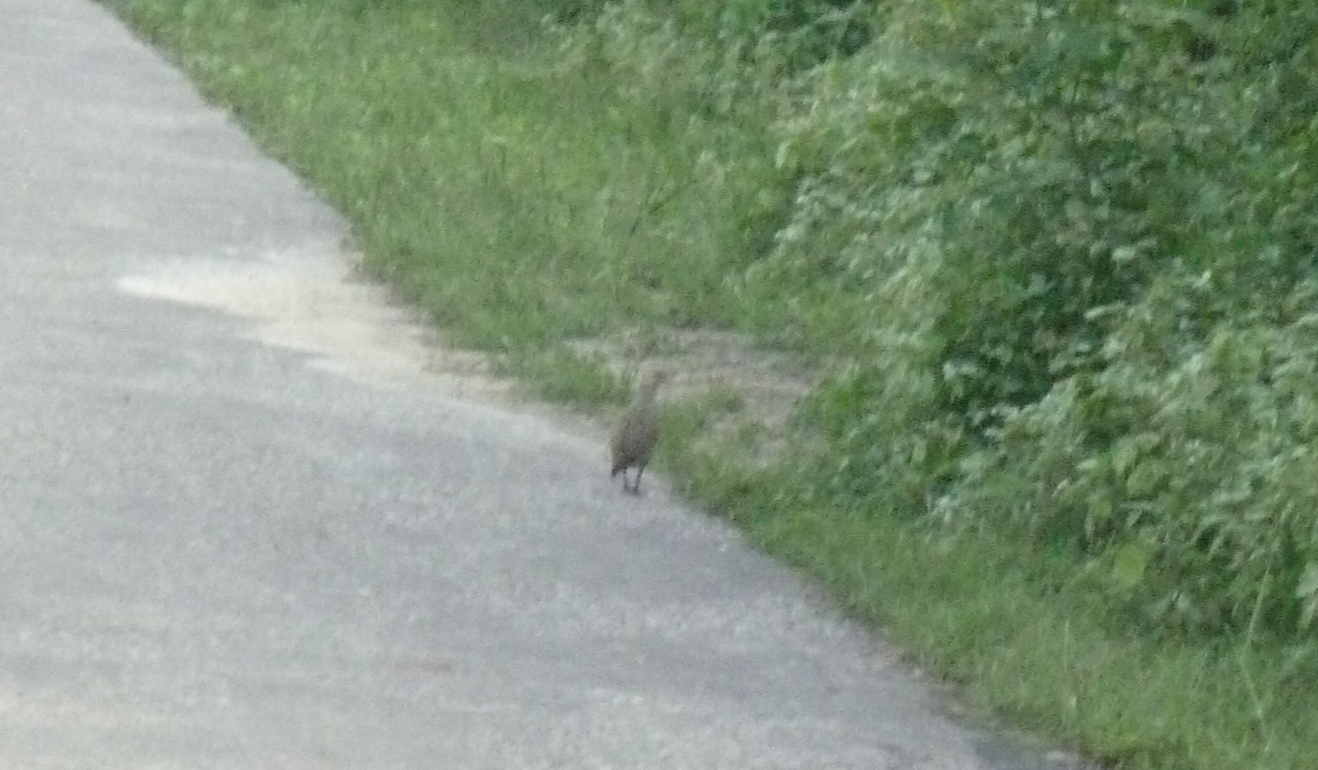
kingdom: Animalia
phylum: Chordata
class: Aves
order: Galliformes
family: Phasianidae
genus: Ortygornis
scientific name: Ortygornis pondicerianus
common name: Grey francolin
